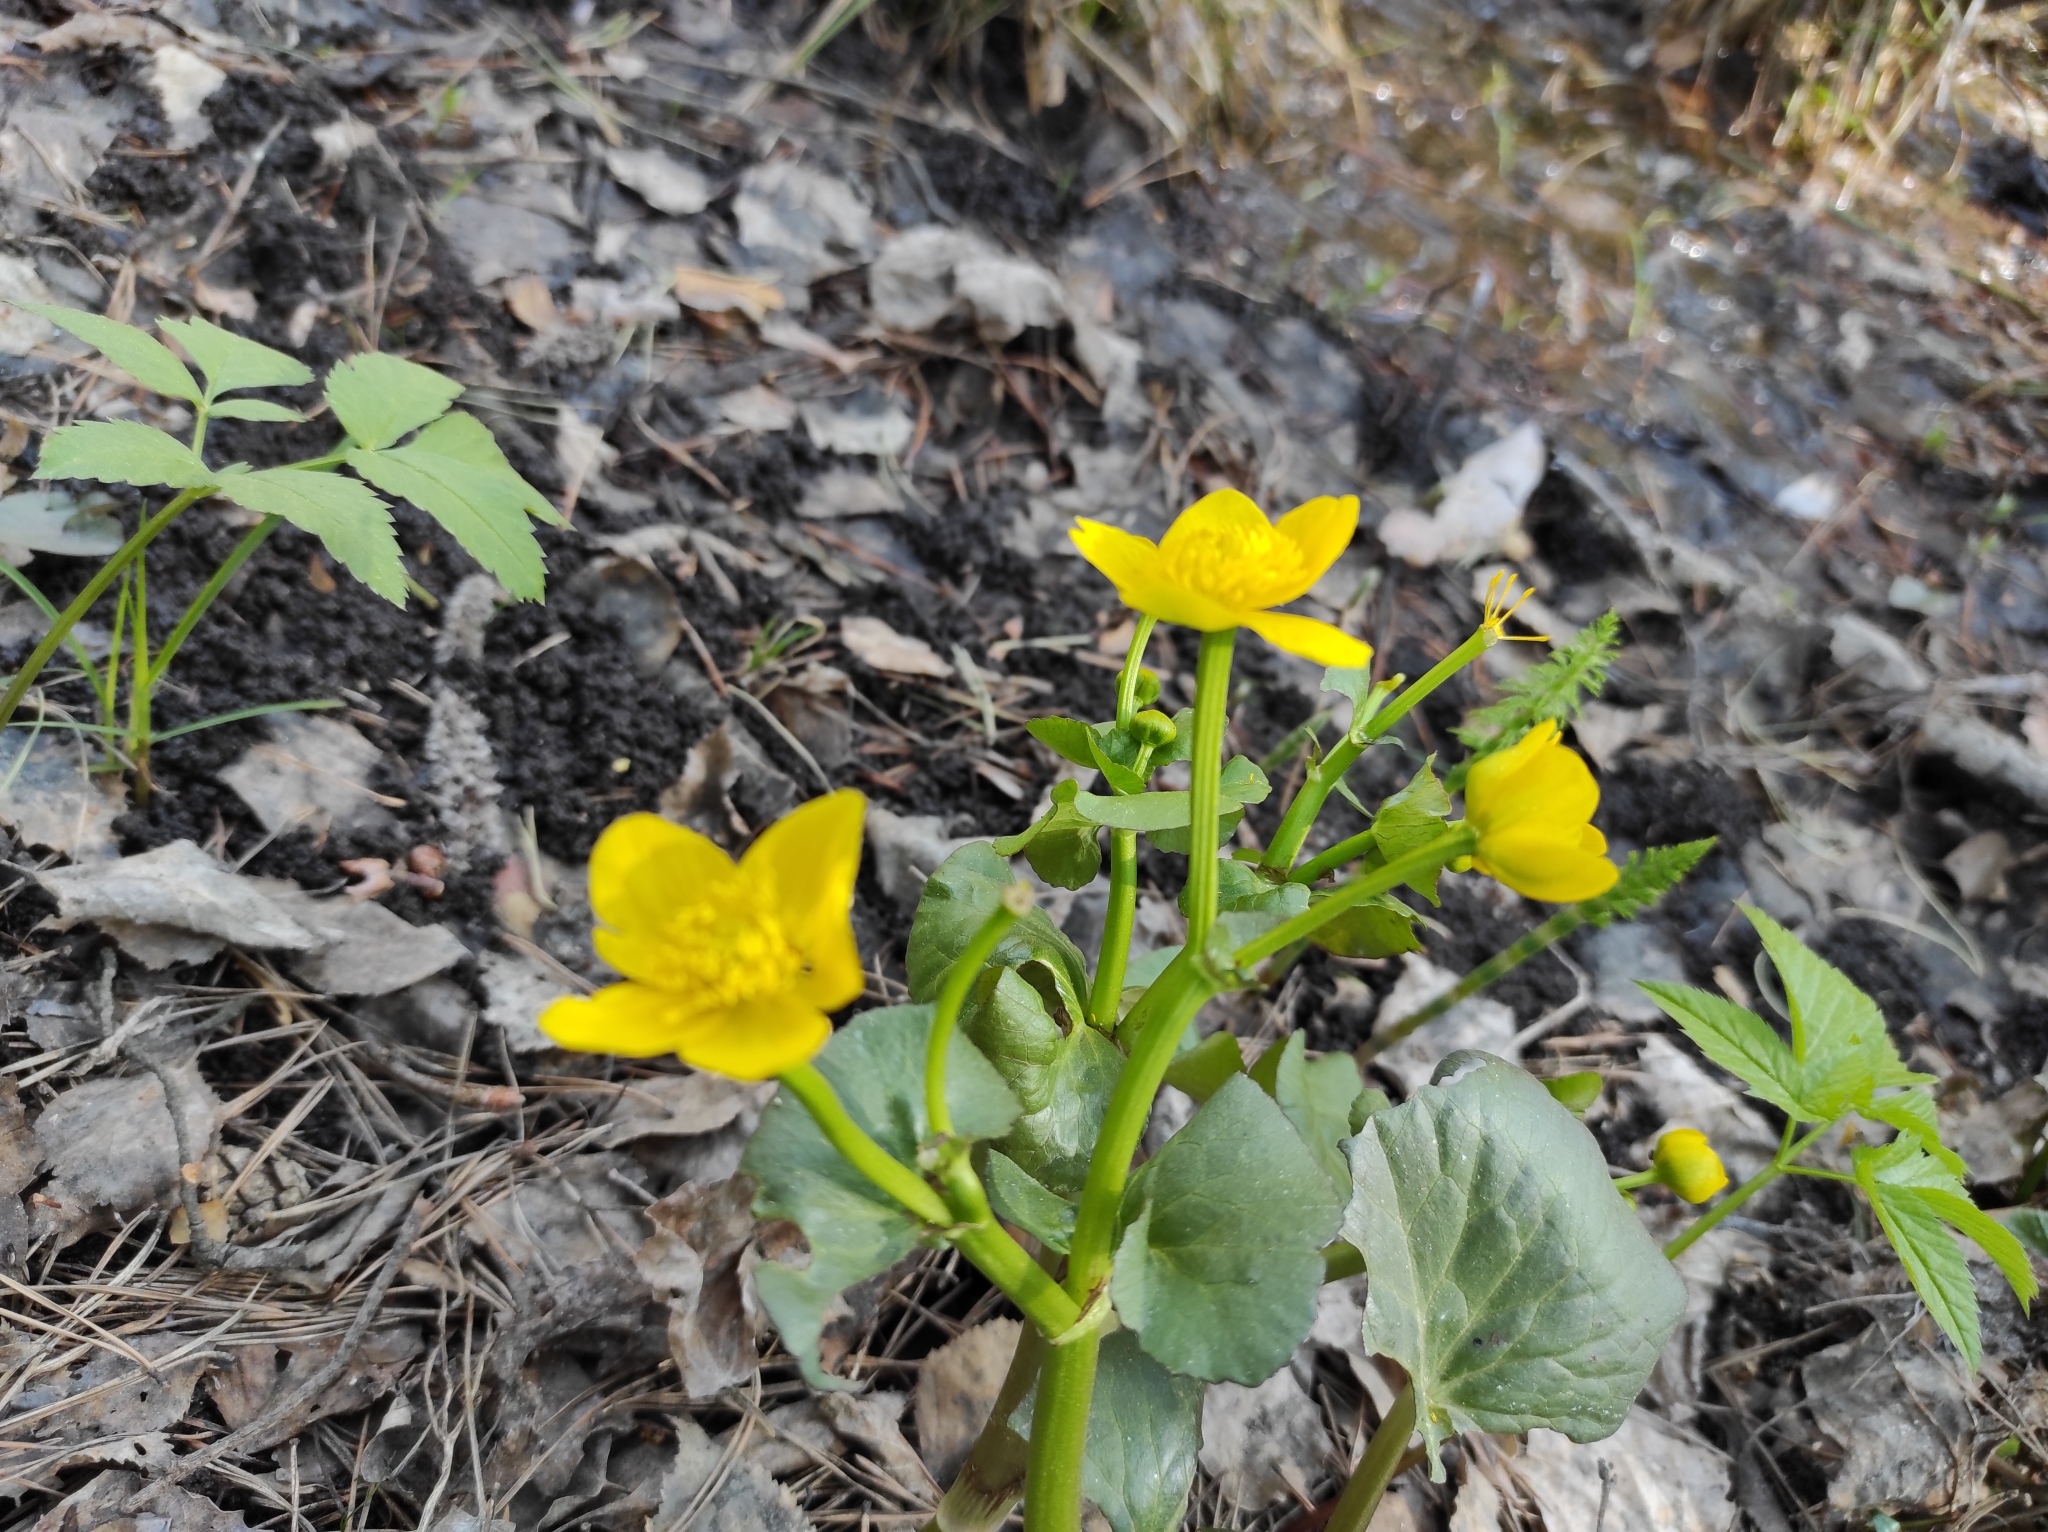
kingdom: Plantae
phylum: Tracheophyta
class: Magnoliopsida
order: Ranunculales
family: Ranunculaceae
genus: Caltha
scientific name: Caltha palustris
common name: Marsh marigold
